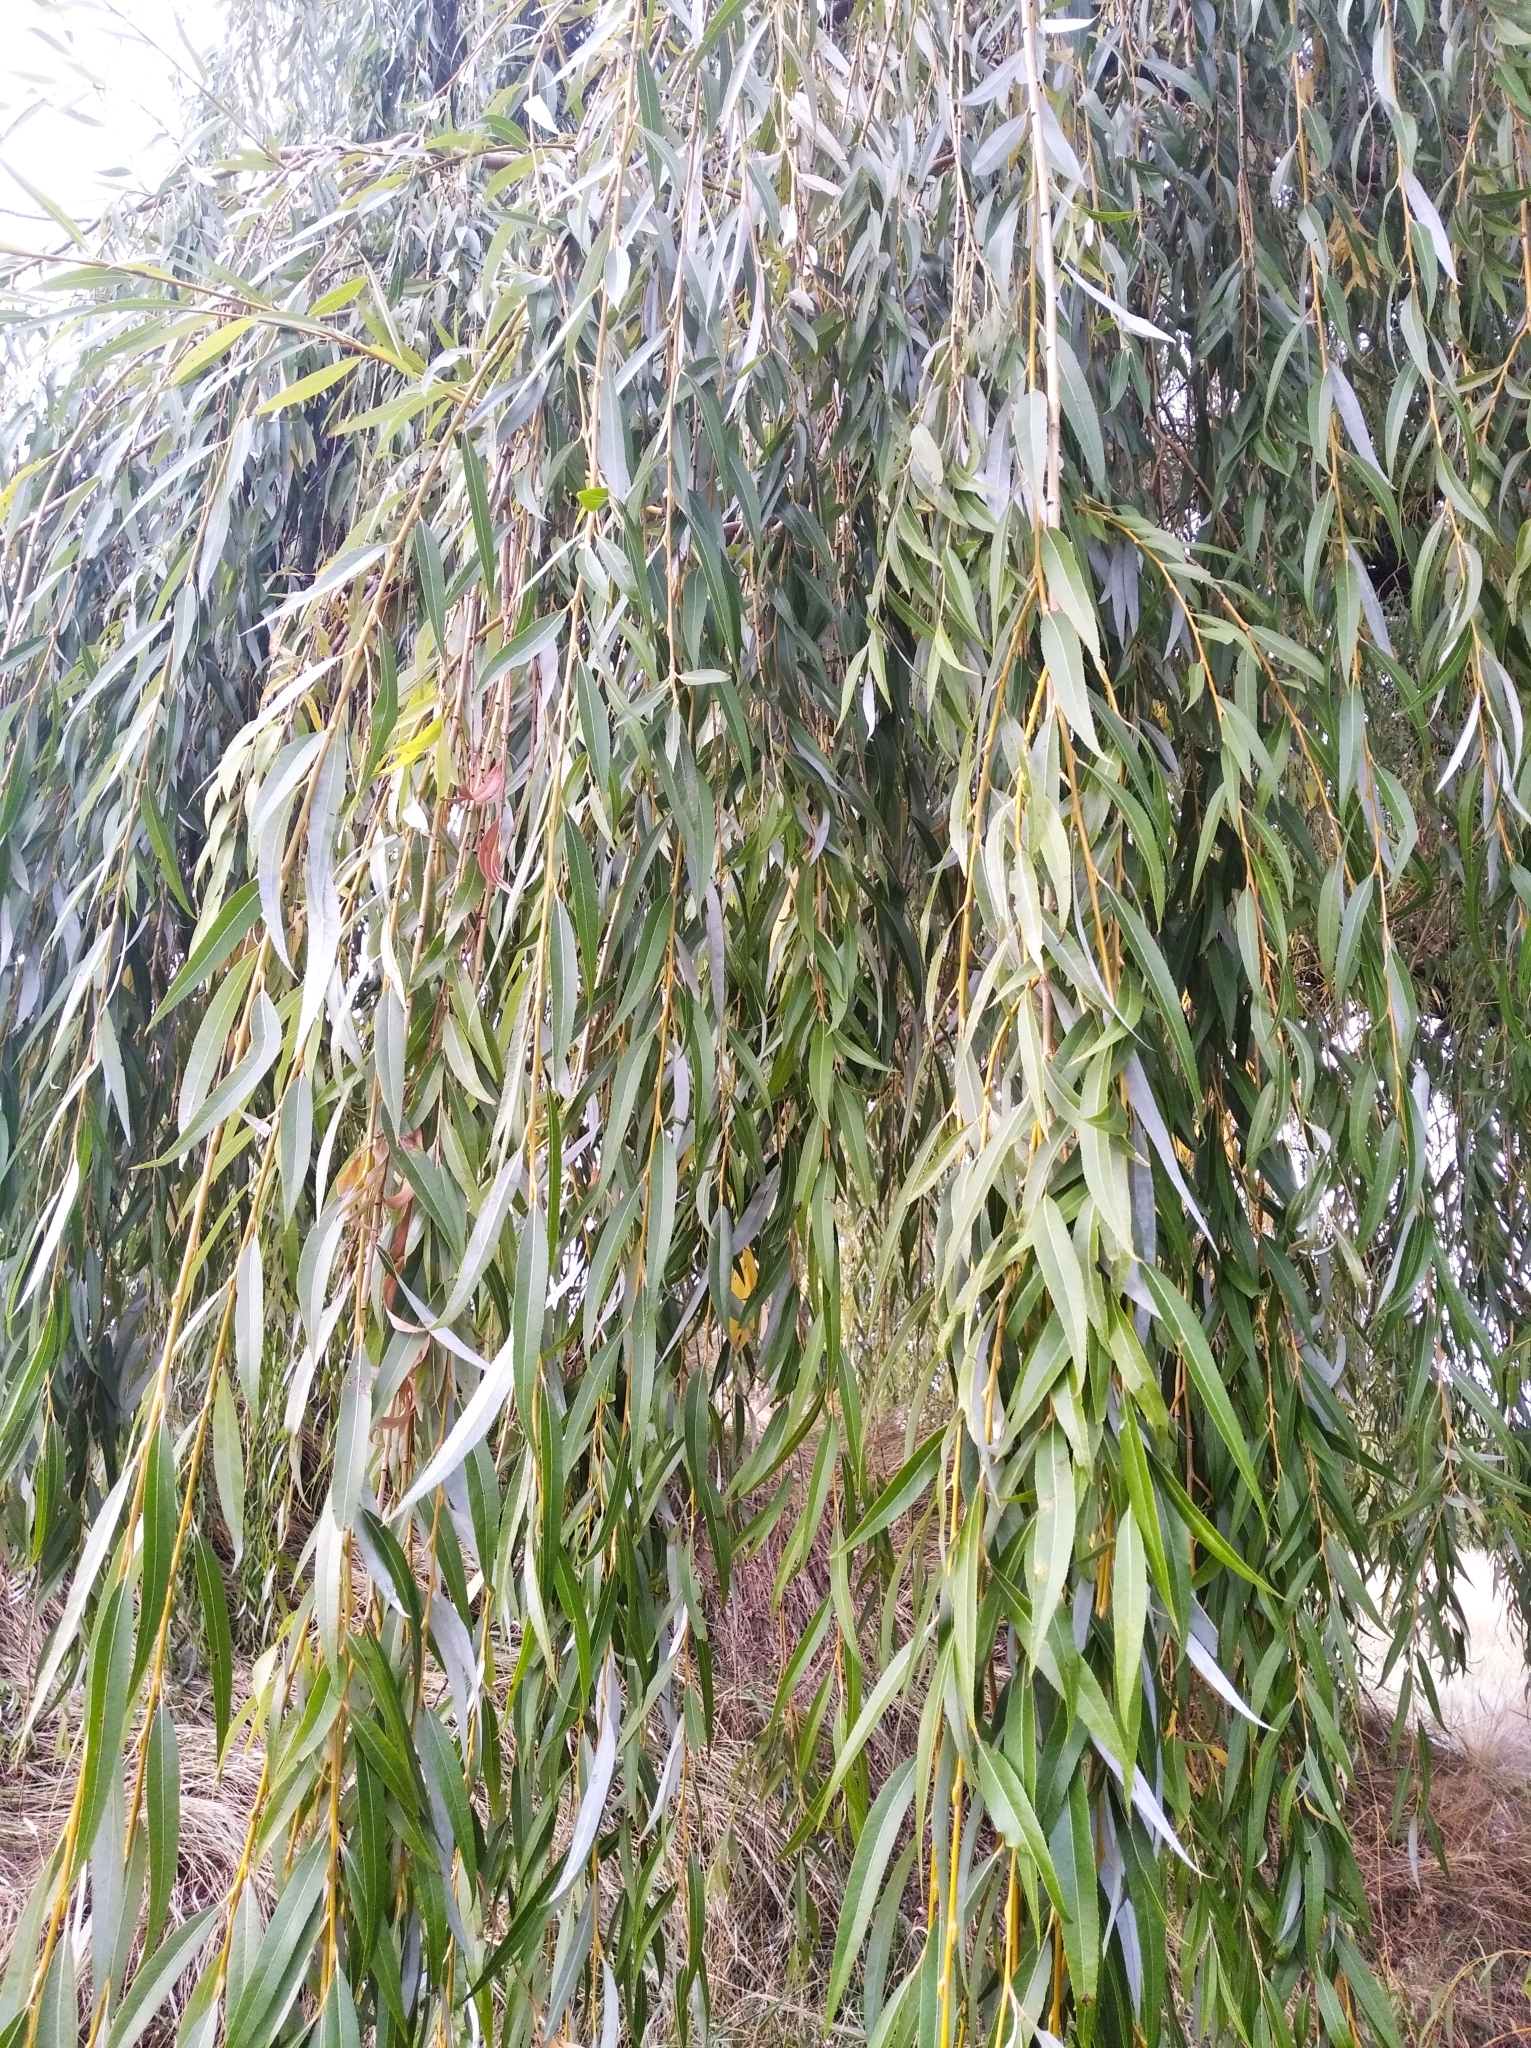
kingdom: Plantae
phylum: Tracheophyta
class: Magnoliopsida
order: Malpighiales
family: Salicaceae
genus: Salix
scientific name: Salix babylonica
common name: Weeping willow
